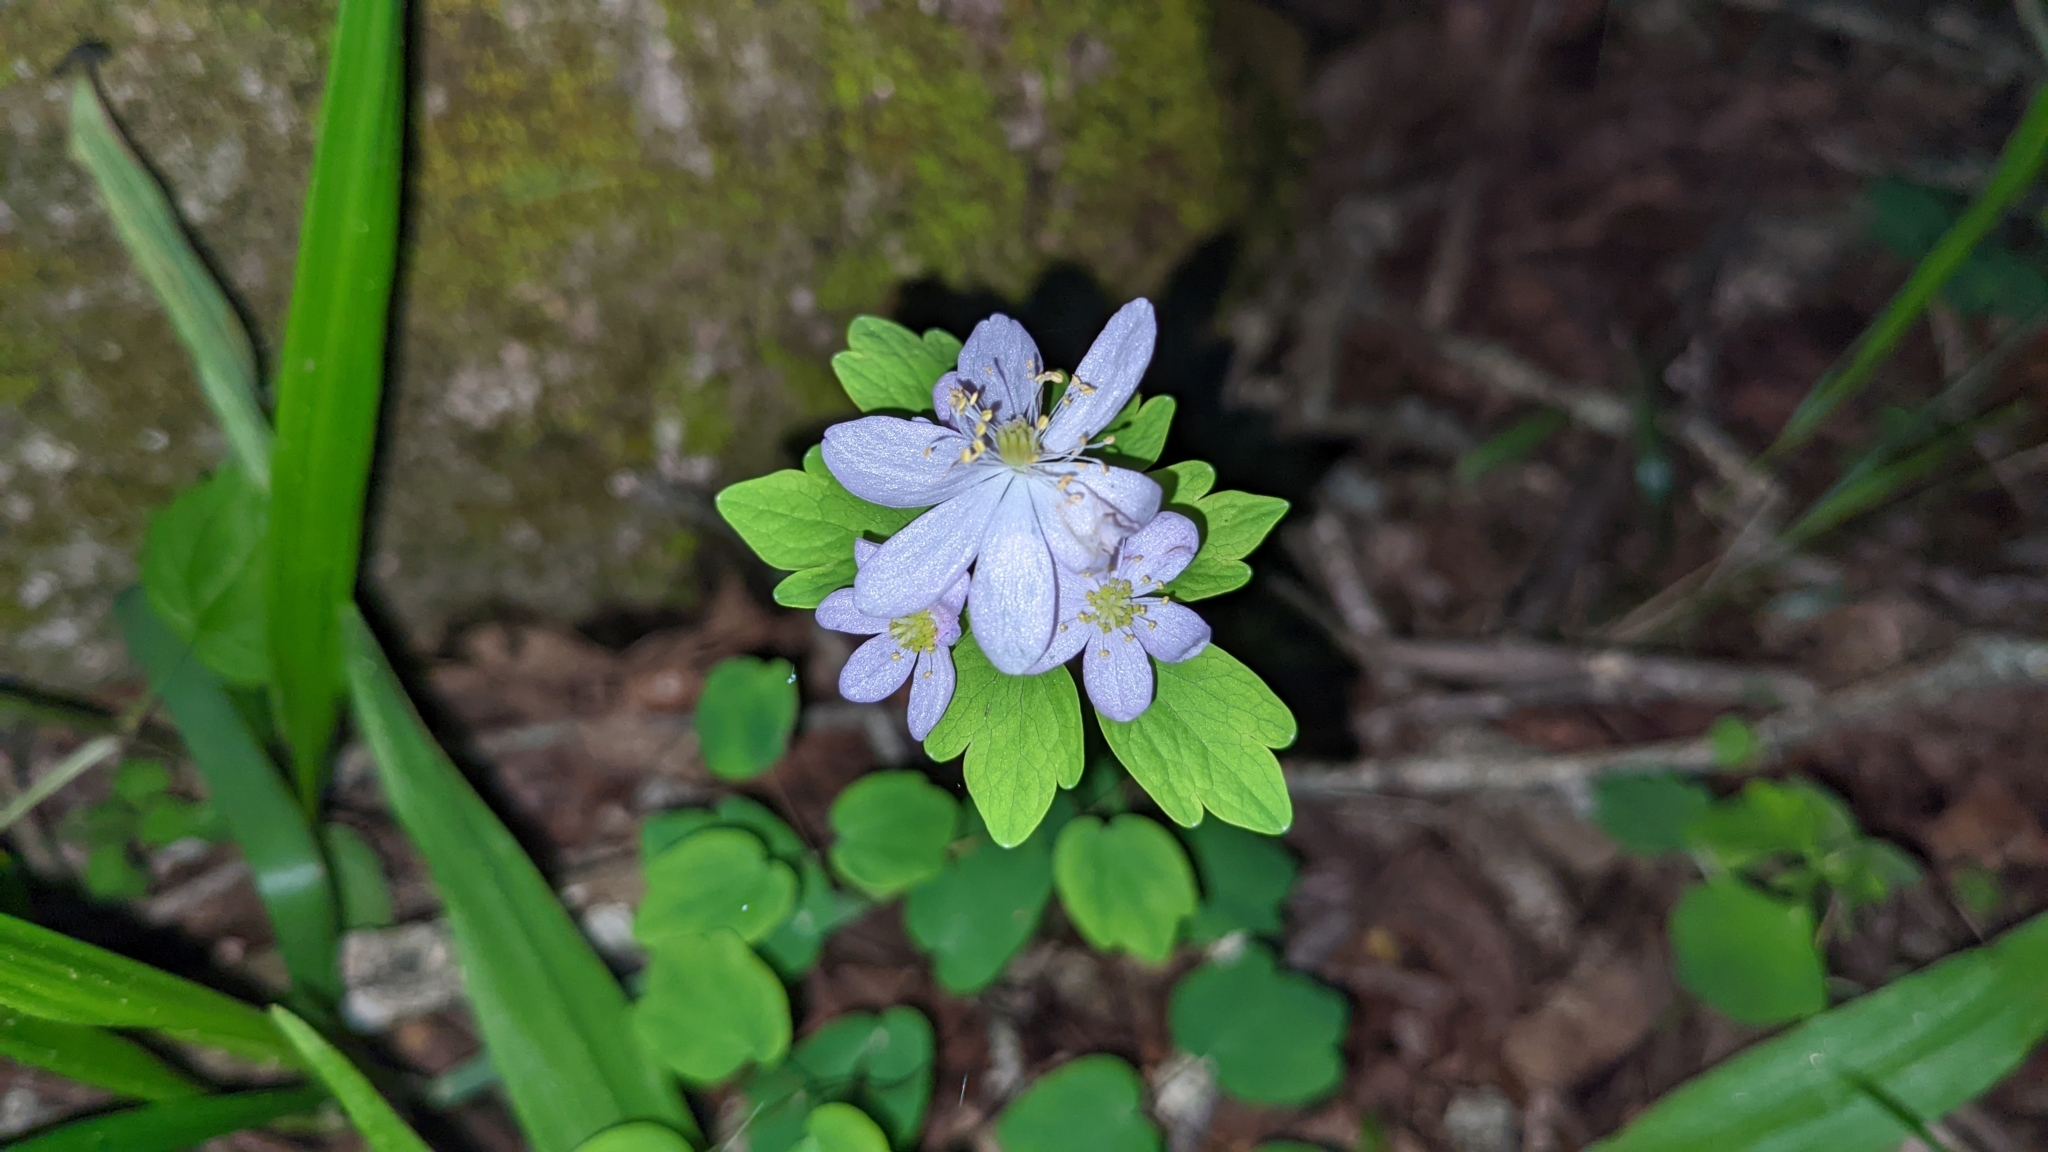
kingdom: Plantae
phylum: Tracheophyta
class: Magnoliopsida
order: Ranunculales
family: Ranunculaceae
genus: Thalictrum
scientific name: Thalictrum thalictroides
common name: Rue-anemone
